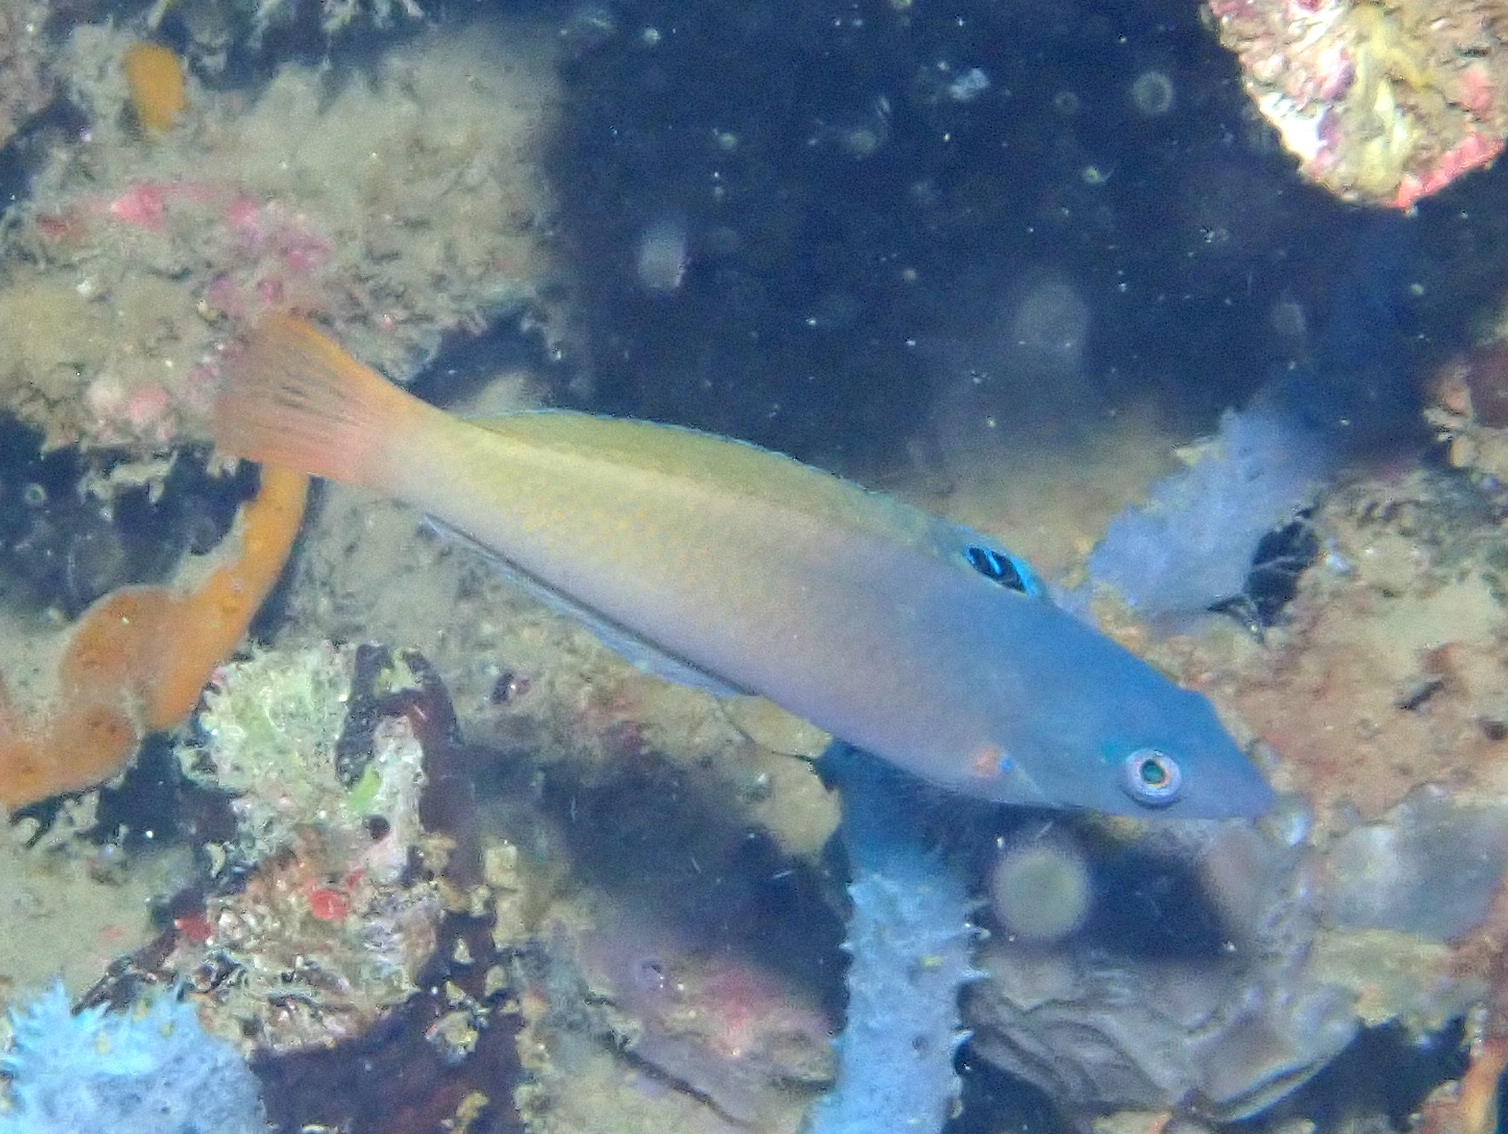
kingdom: Animalia
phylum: Chordata
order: Perciformes
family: Labridae
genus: Halichoeres
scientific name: Halichoeres prosopeion
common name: Half-grey wrasse
